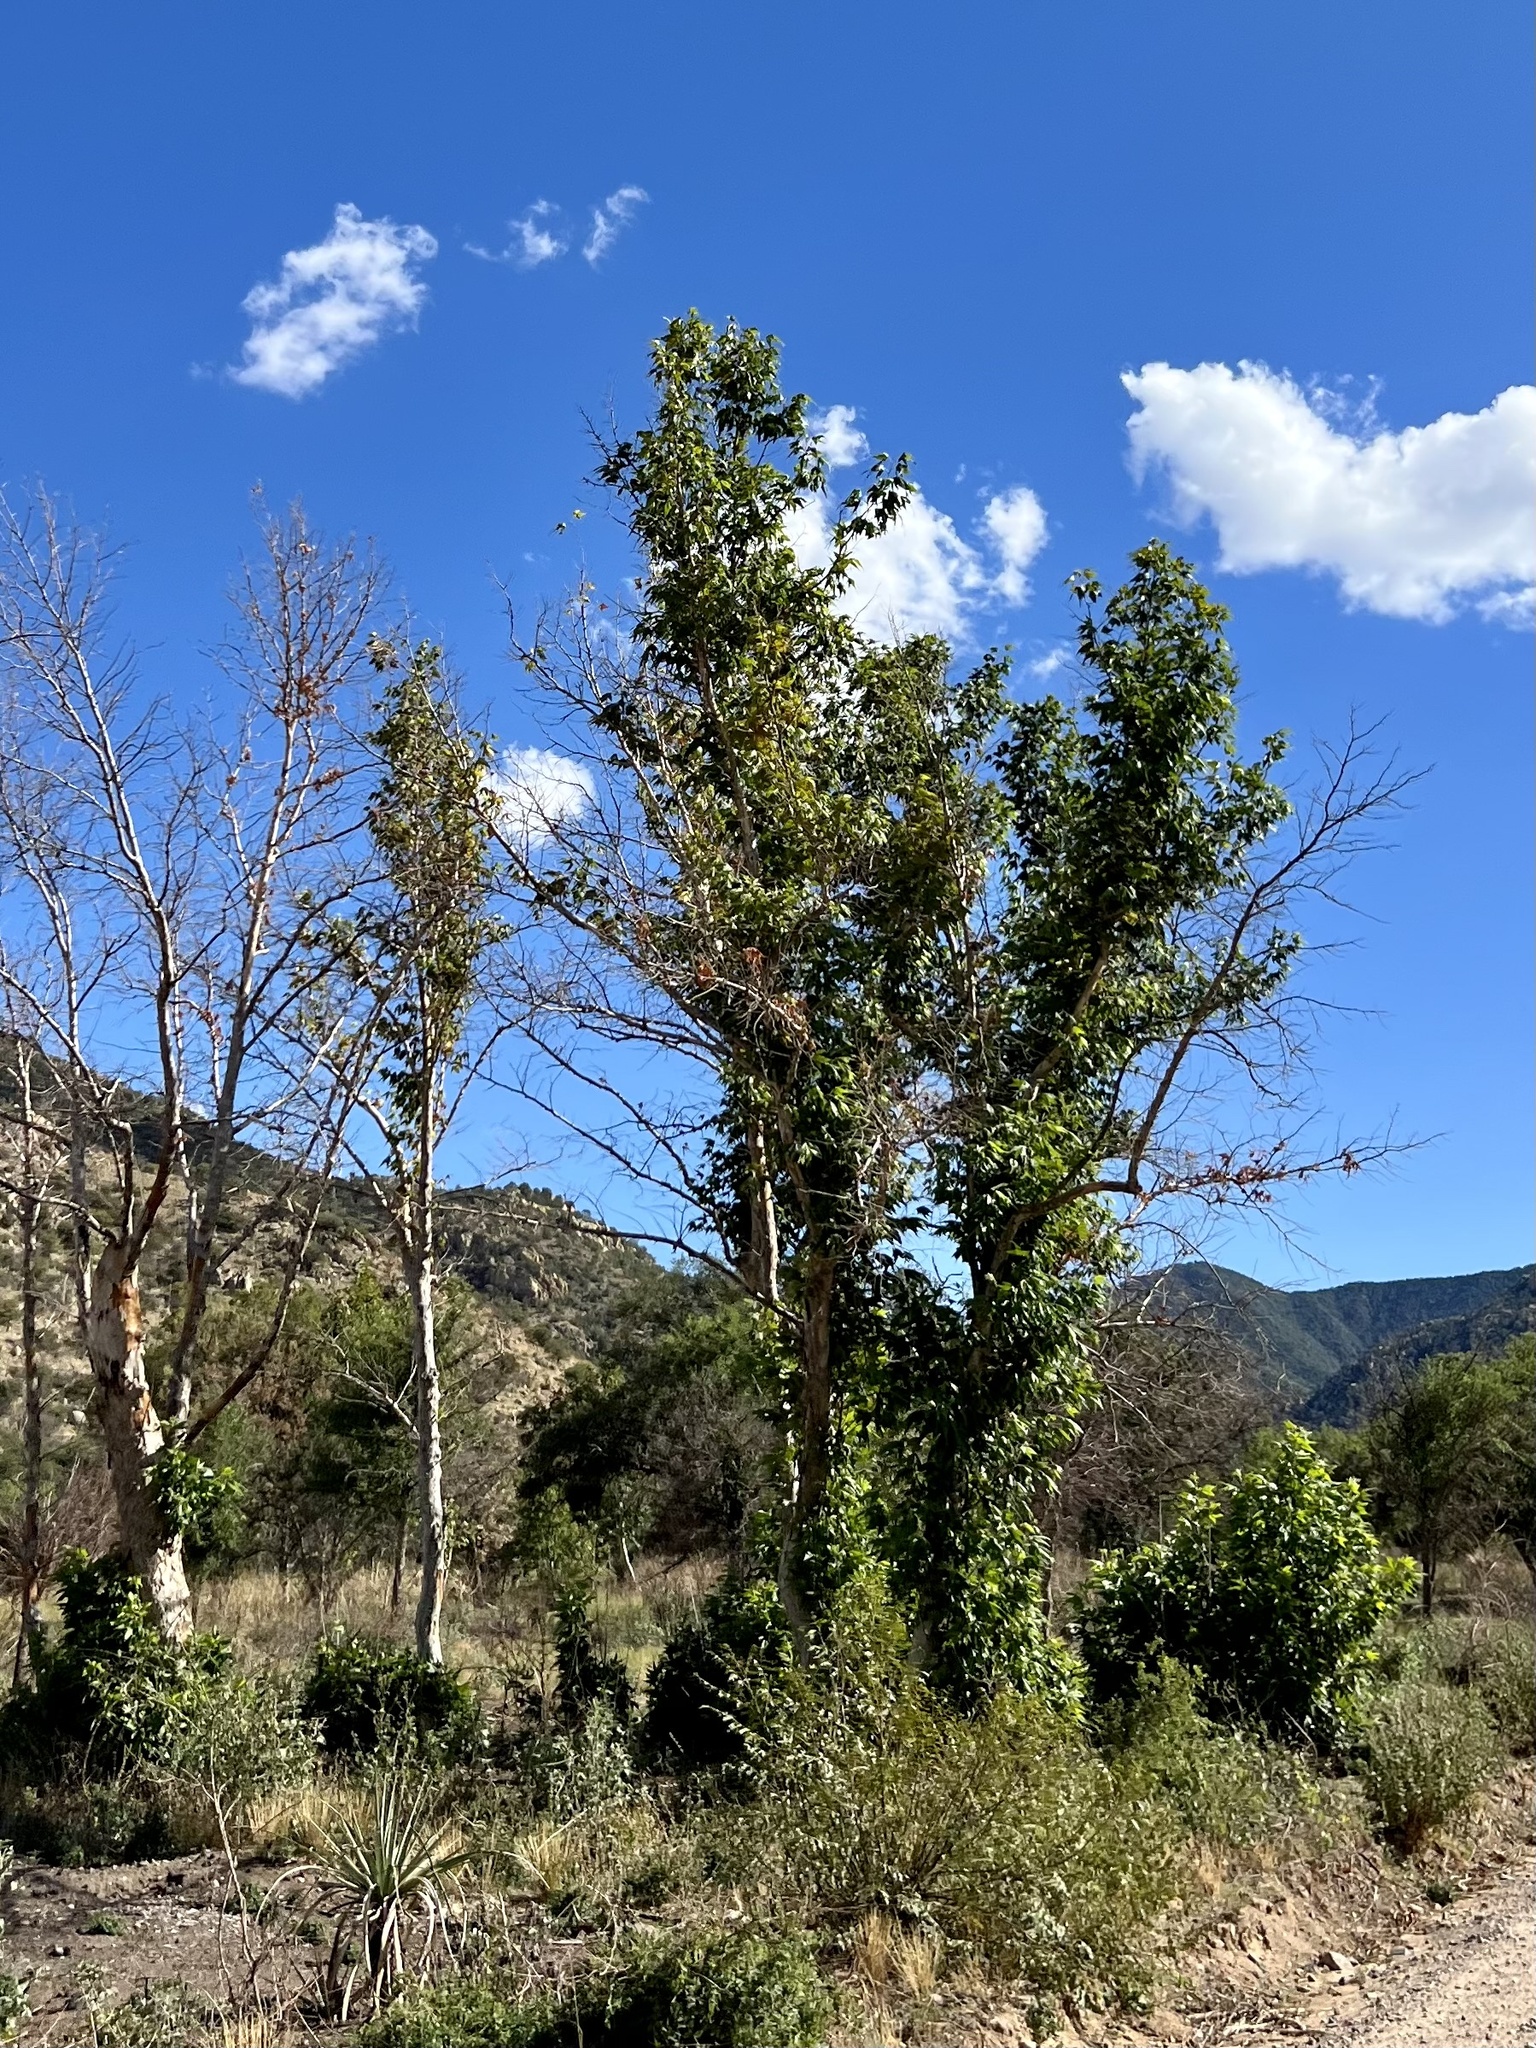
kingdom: Plantae
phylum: Tracheophyta
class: Magnoliopsida
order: Proteales
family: Platanaceae
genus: Platanus
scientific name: Platanus wrightii
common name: Arizona sycamore
